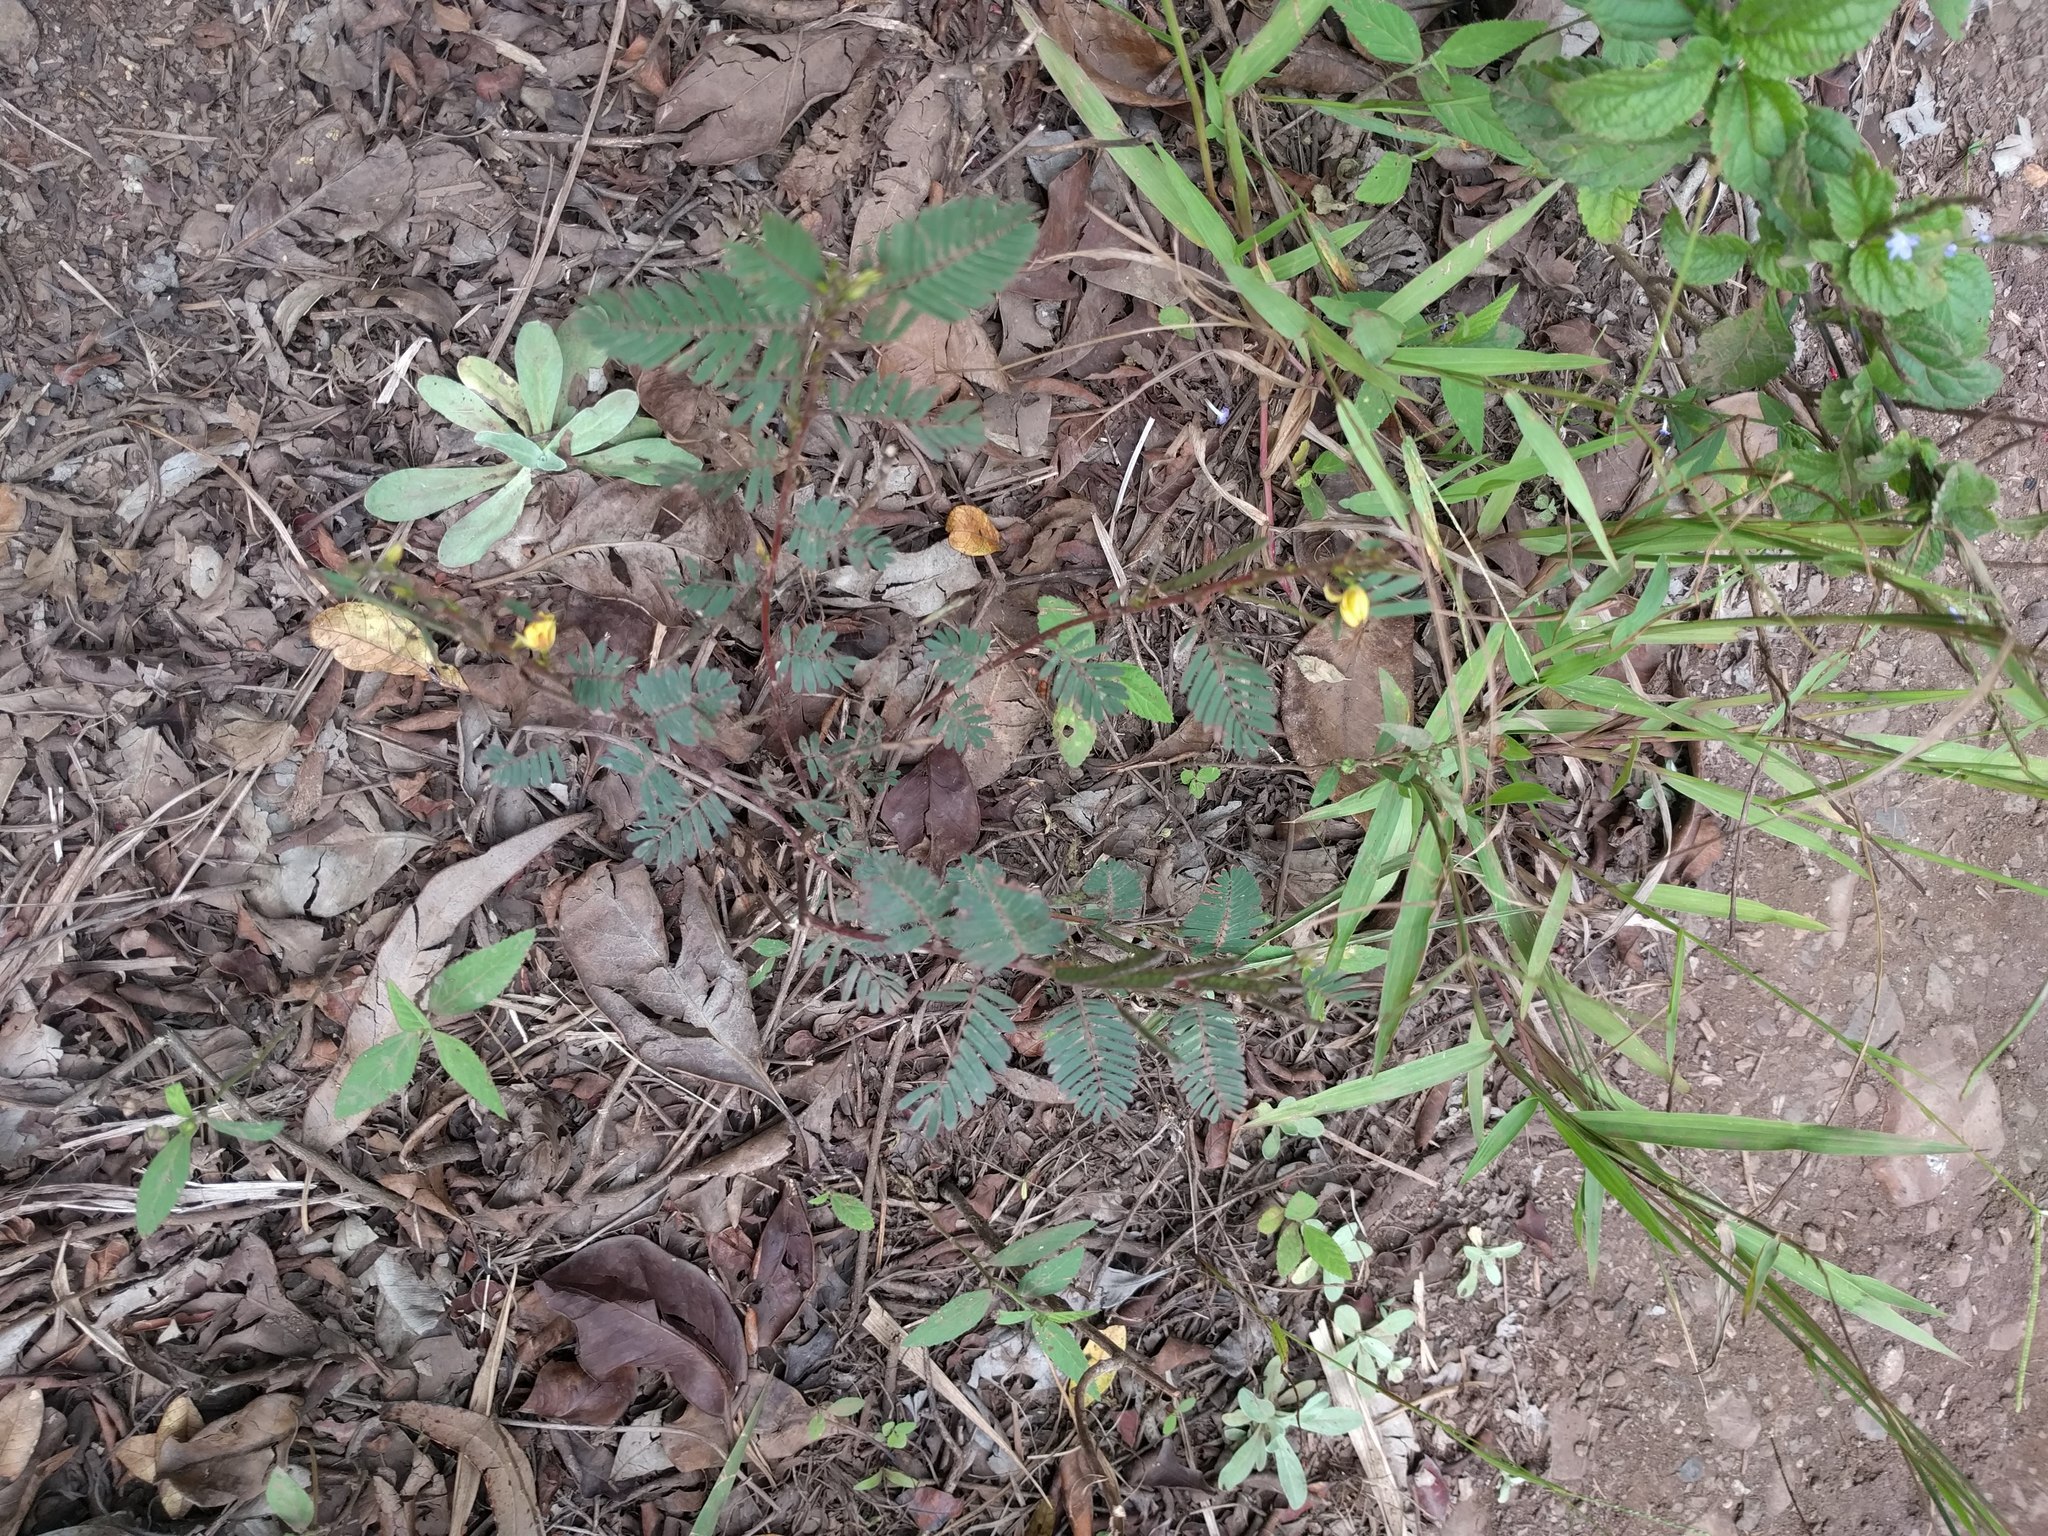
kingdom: Plantae
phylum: Tracheophyta
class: Magnoliopsida
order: Fabales
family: Fabaceae
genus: Chamaecrista
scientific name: Chamaecrista nictitans
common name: Sensitive cassia
